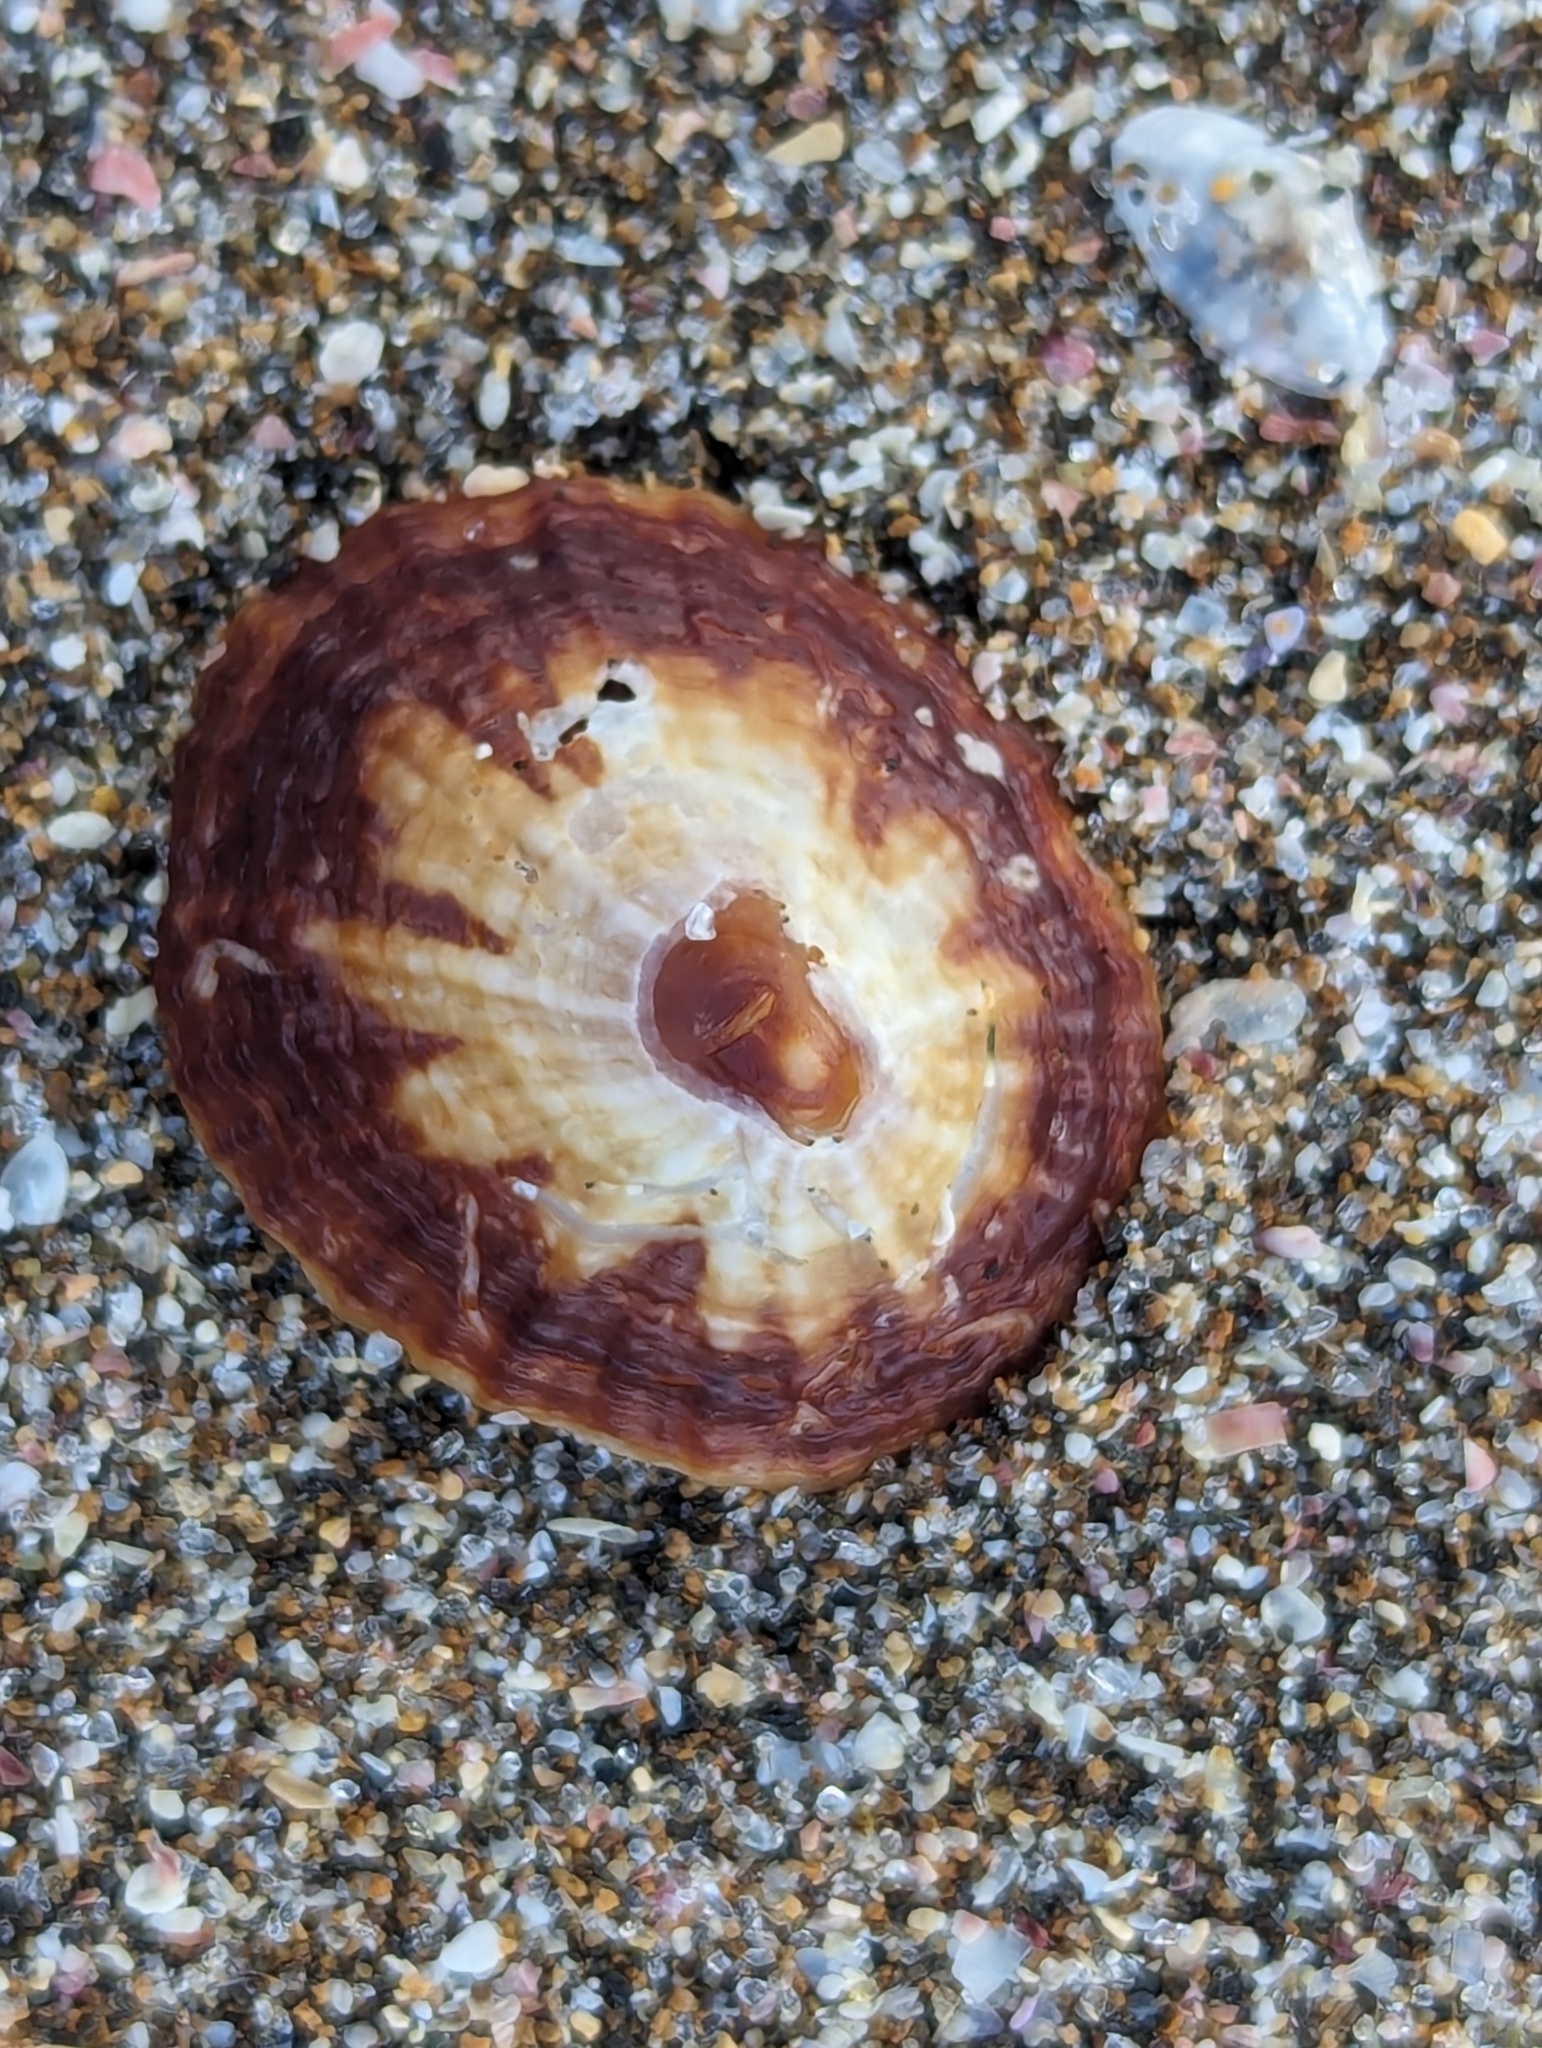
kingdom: Animalia
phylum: Mollusca
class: Gastropoda
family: Nacellidae
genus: Cellana
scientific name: Cellana stellifera
